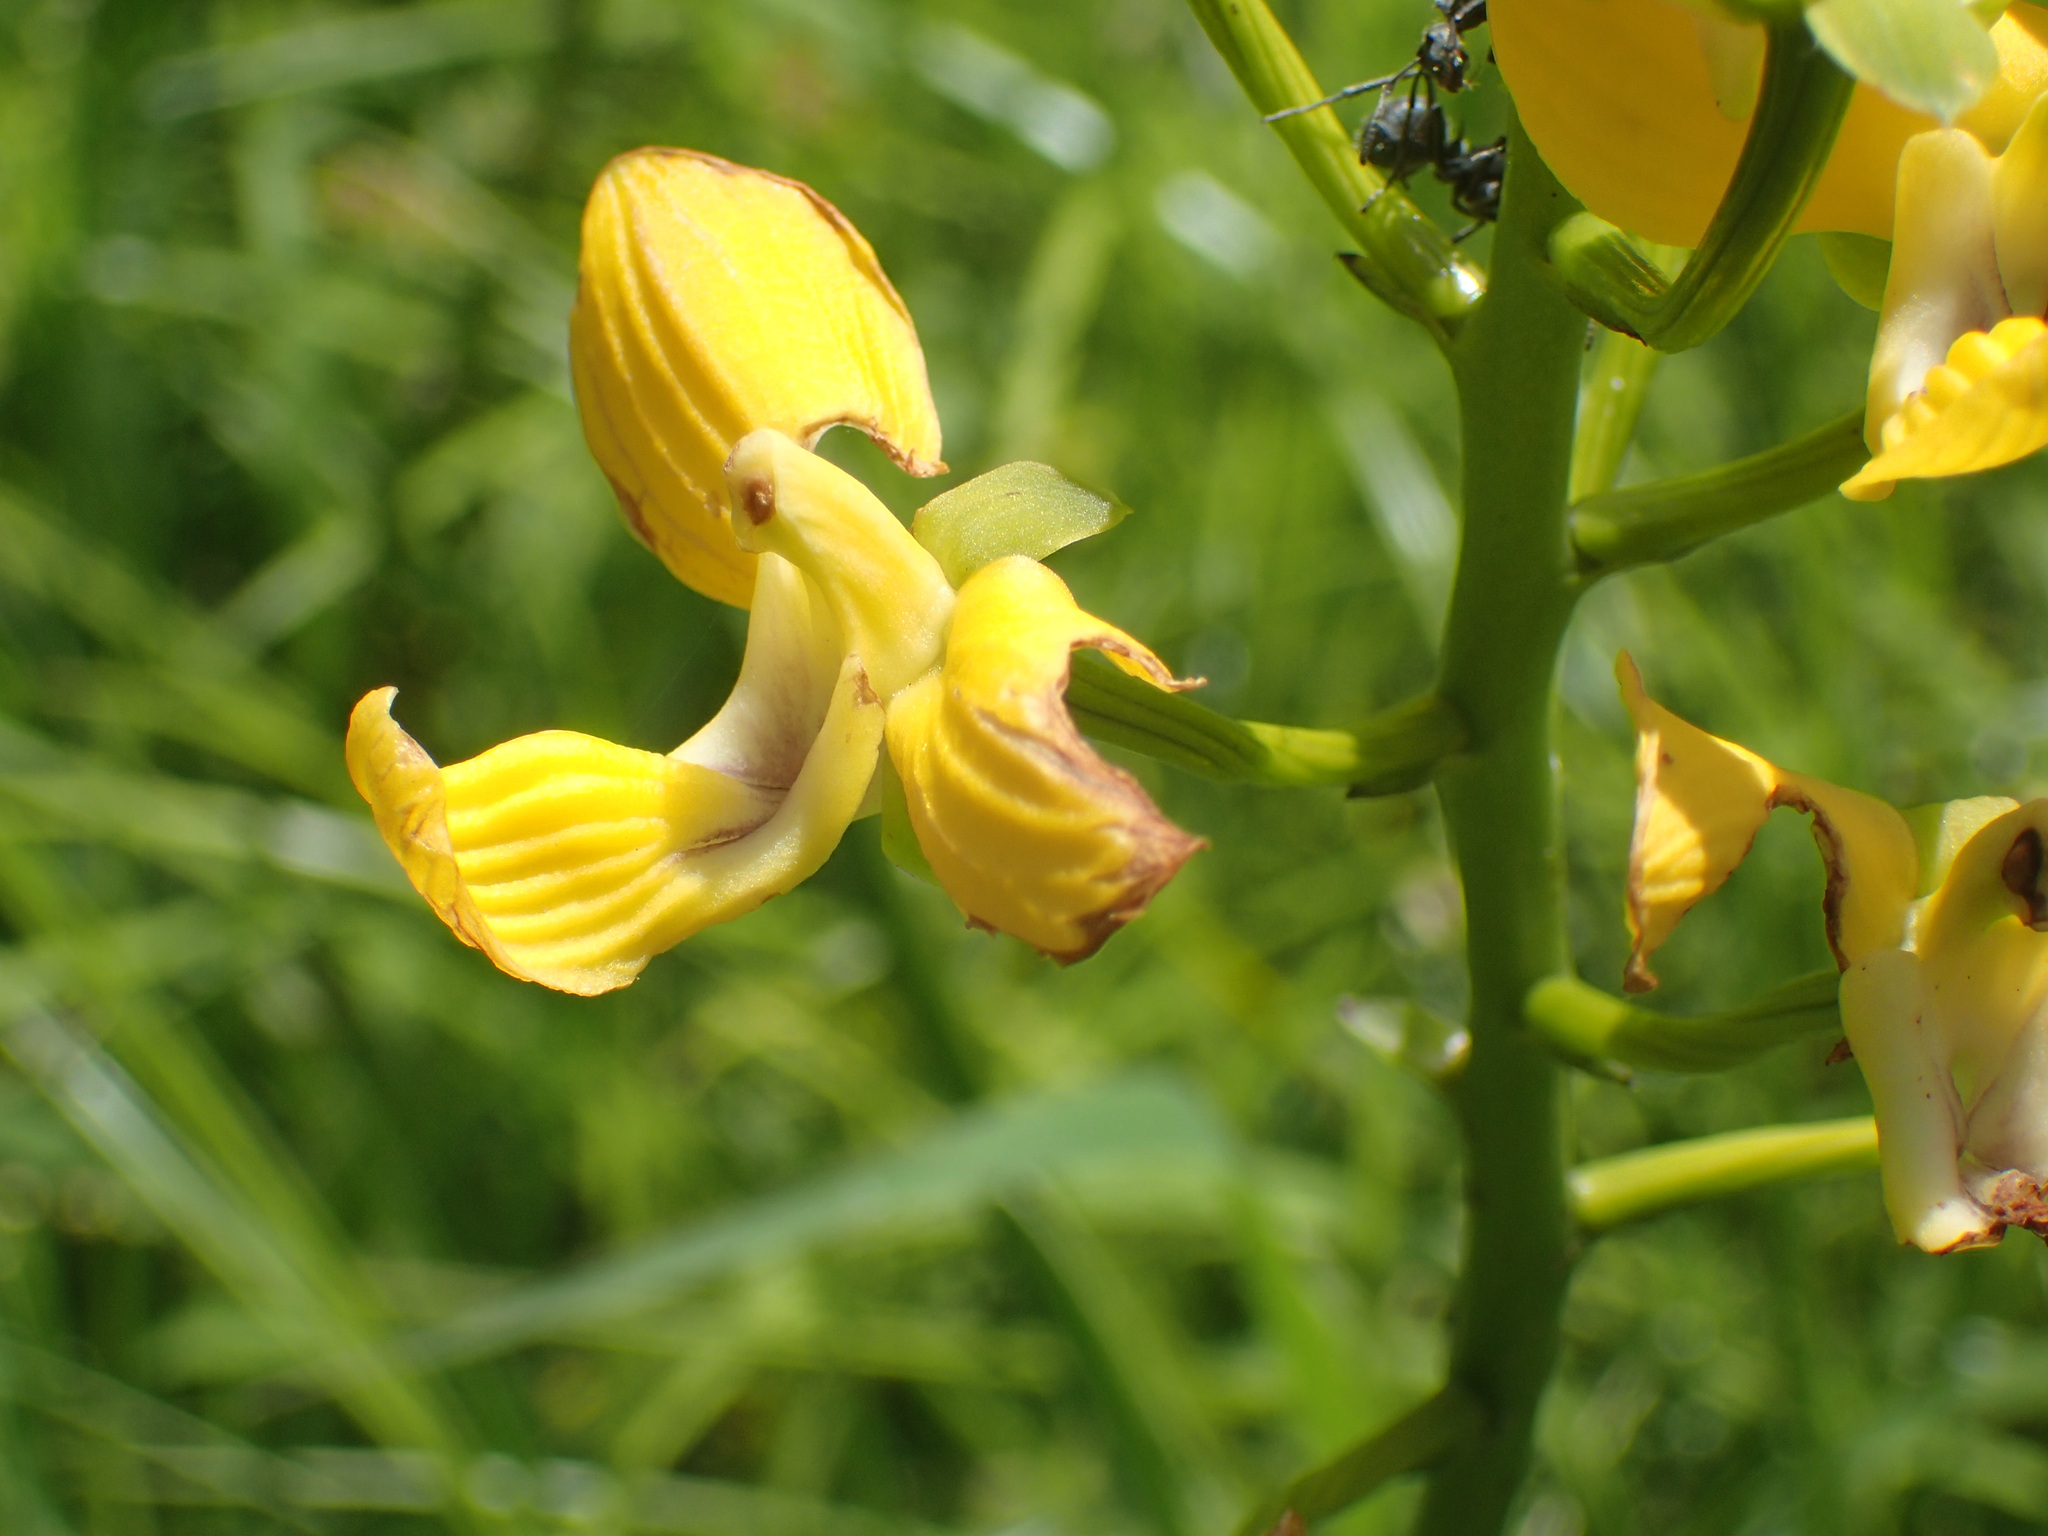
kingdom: Plantae
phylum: Tracheophyta
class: Liliopsida
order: Asparagales
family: Orchidaceae
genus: Eulophia
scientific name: Eulophia speciosa
